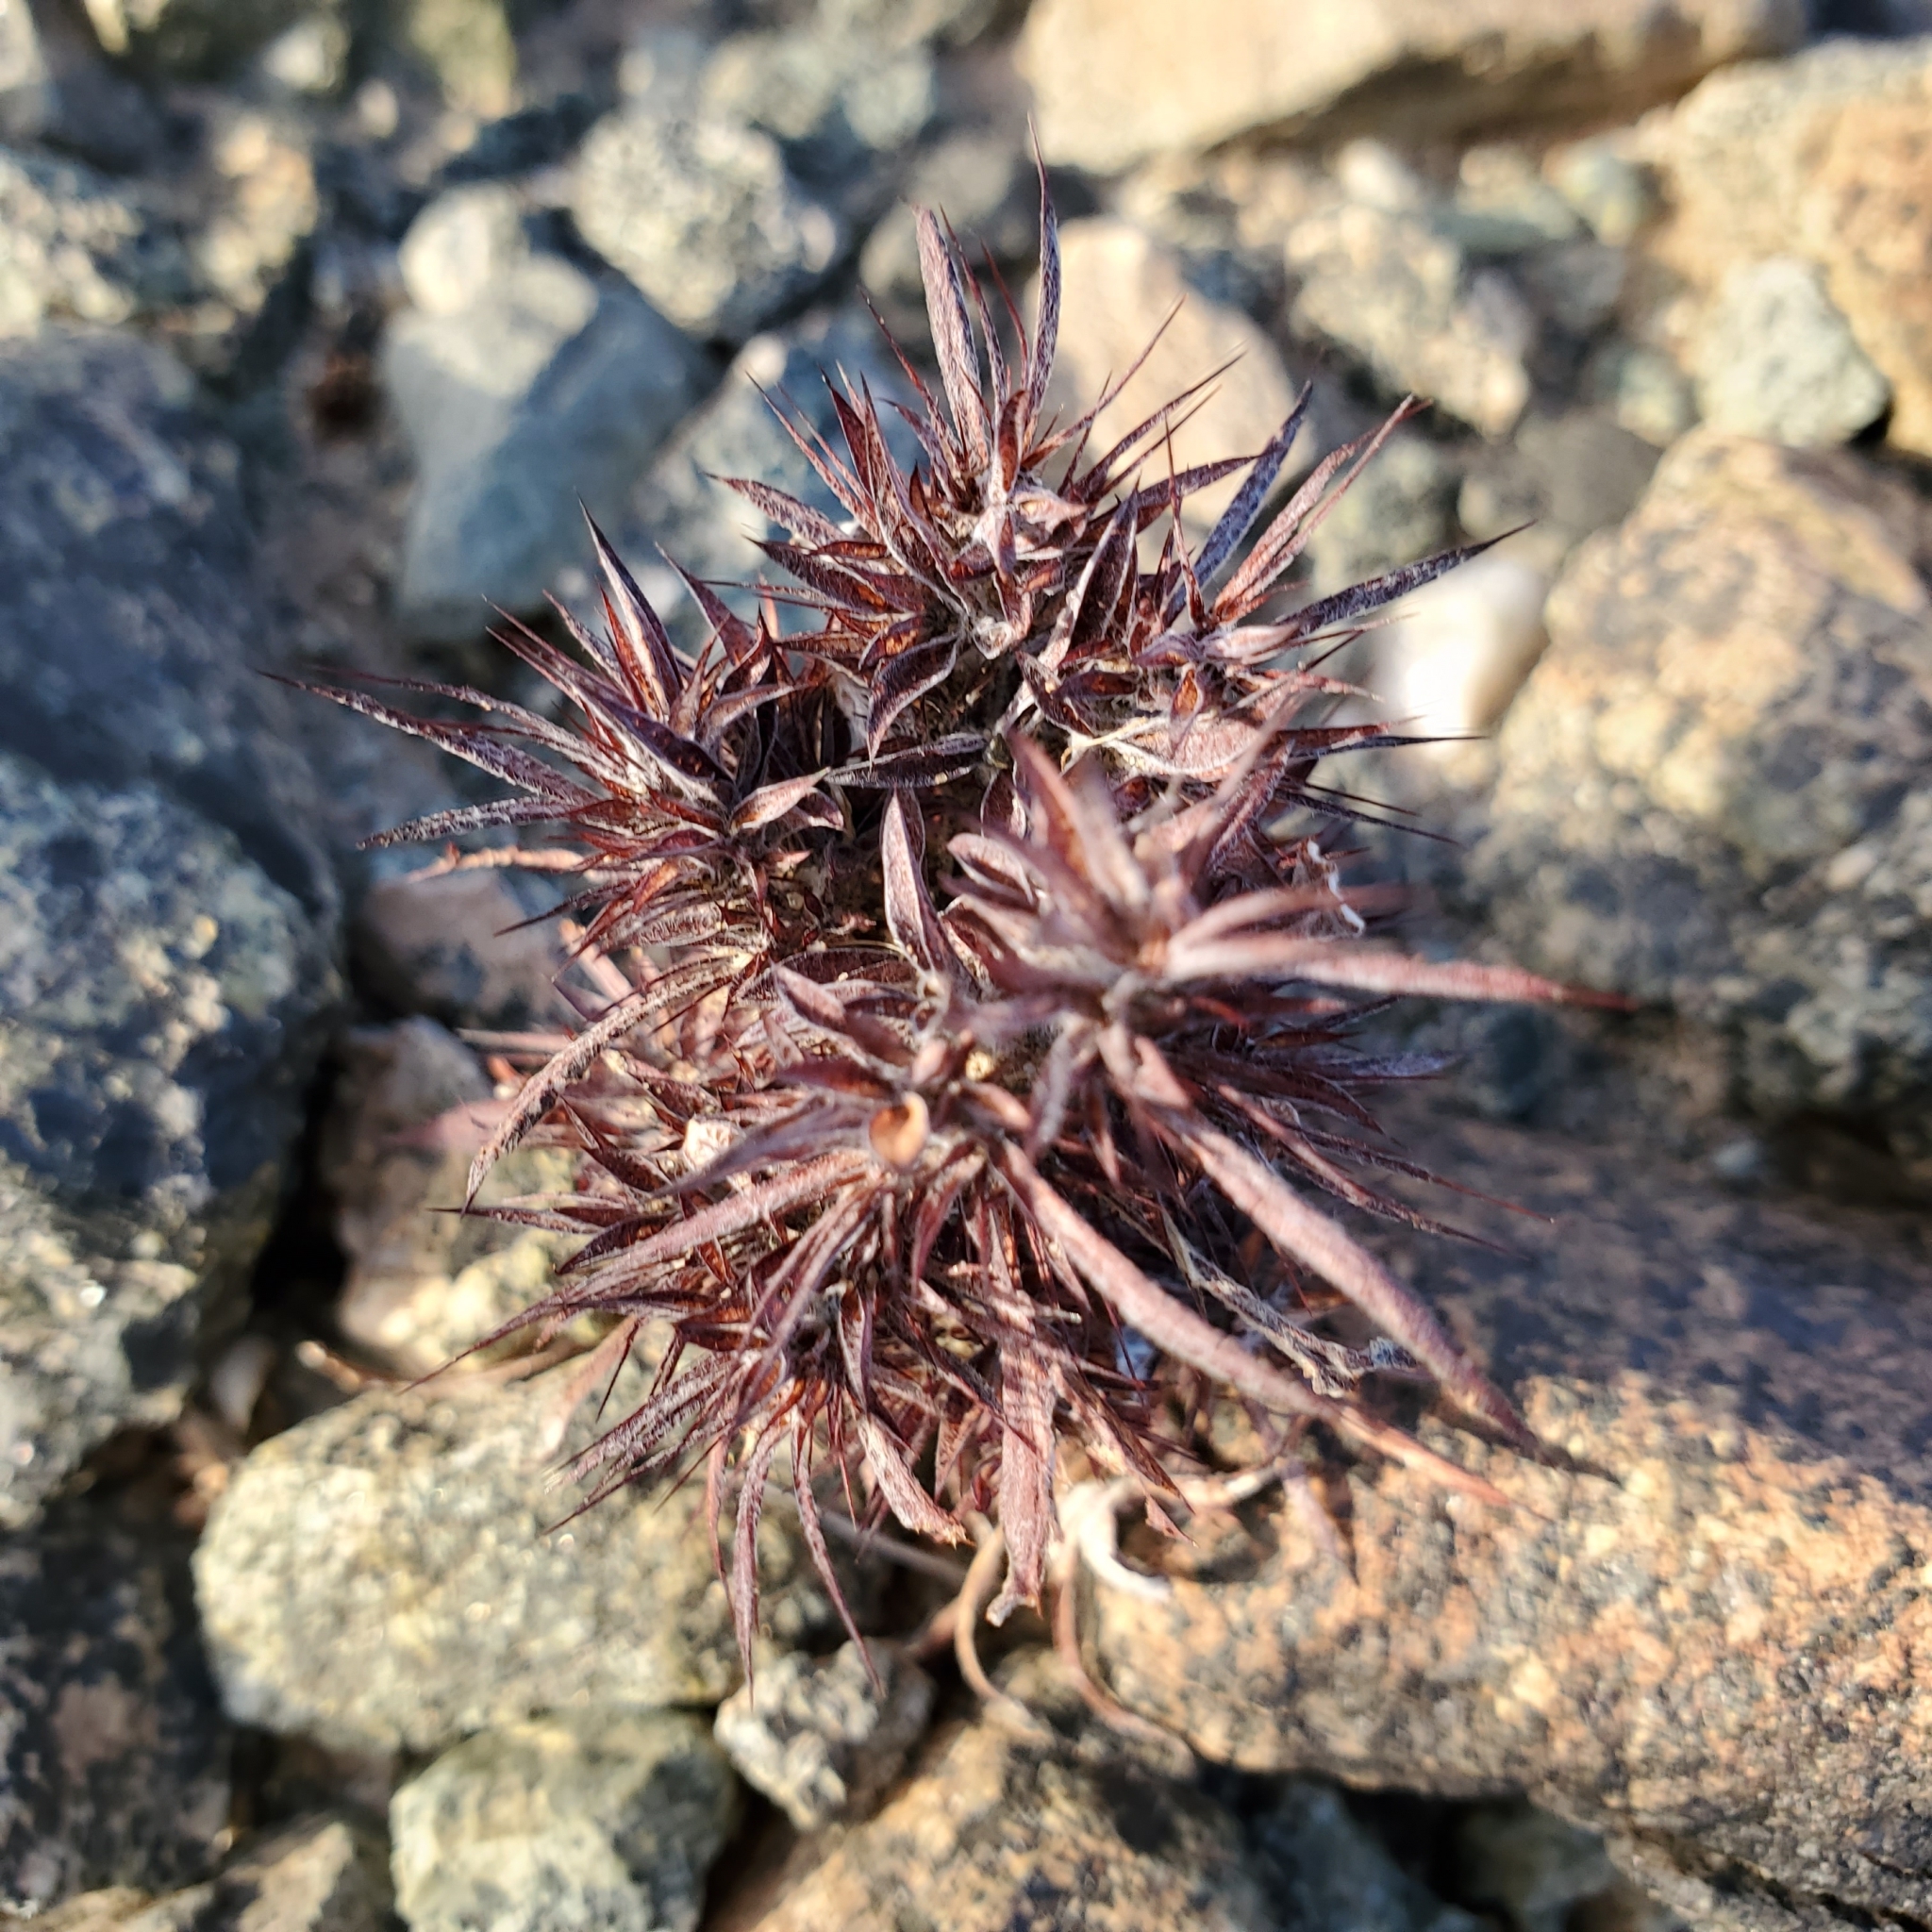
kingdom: Plantae
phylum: Tracheophyta
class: Magnoliopsida
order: Caryophyllales
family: Polygonaceae
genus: Chorizanthe
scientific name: Chorizanthe rigida
